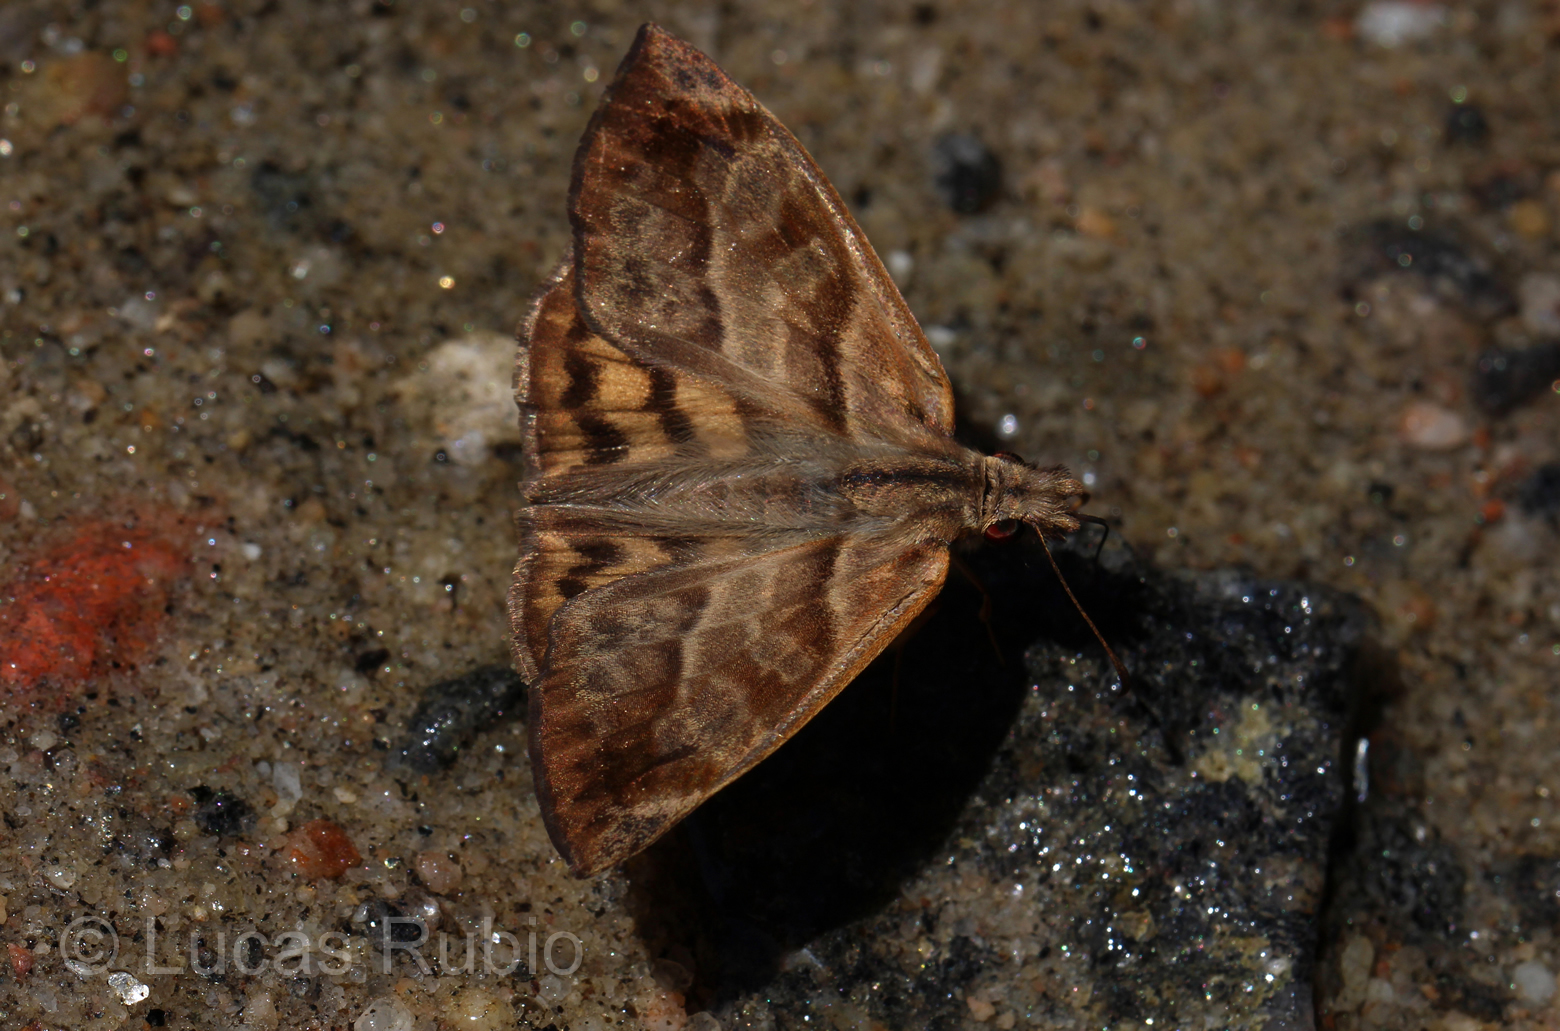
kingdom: Animalia
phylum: Arthropoda
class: Insecta
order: Lepidoptera
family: Hesperiidae
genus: Timochares
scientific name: Timochares trifasciata
